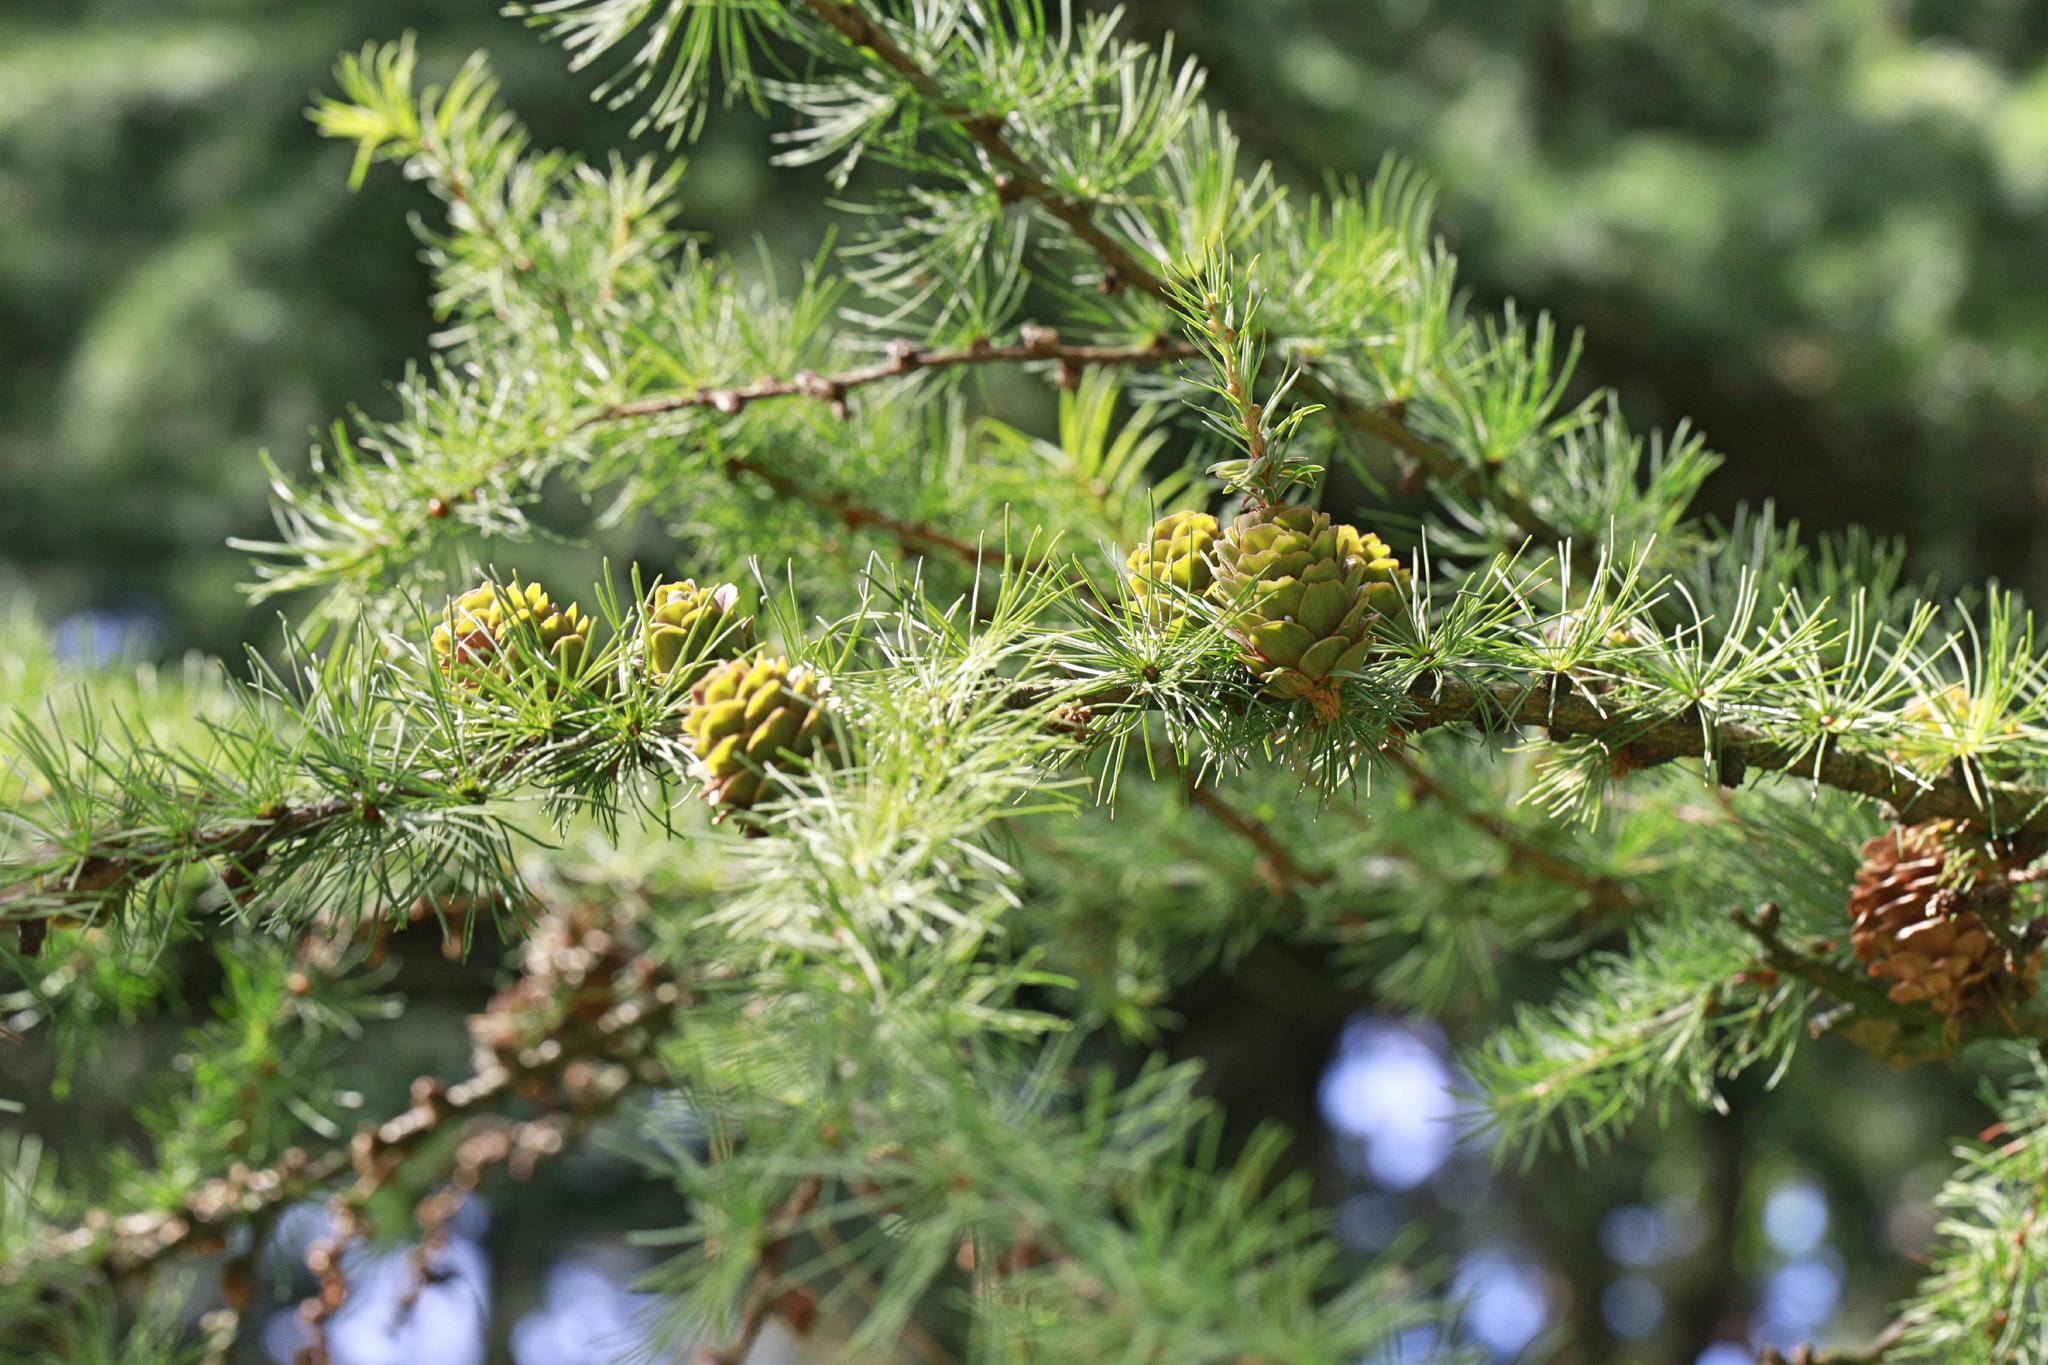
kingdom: Plantae
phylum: Tracheophyta
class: Pinopsida
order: Pinales
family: Pinaceae
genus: Larix
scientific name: Larix decidua
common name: European larch
